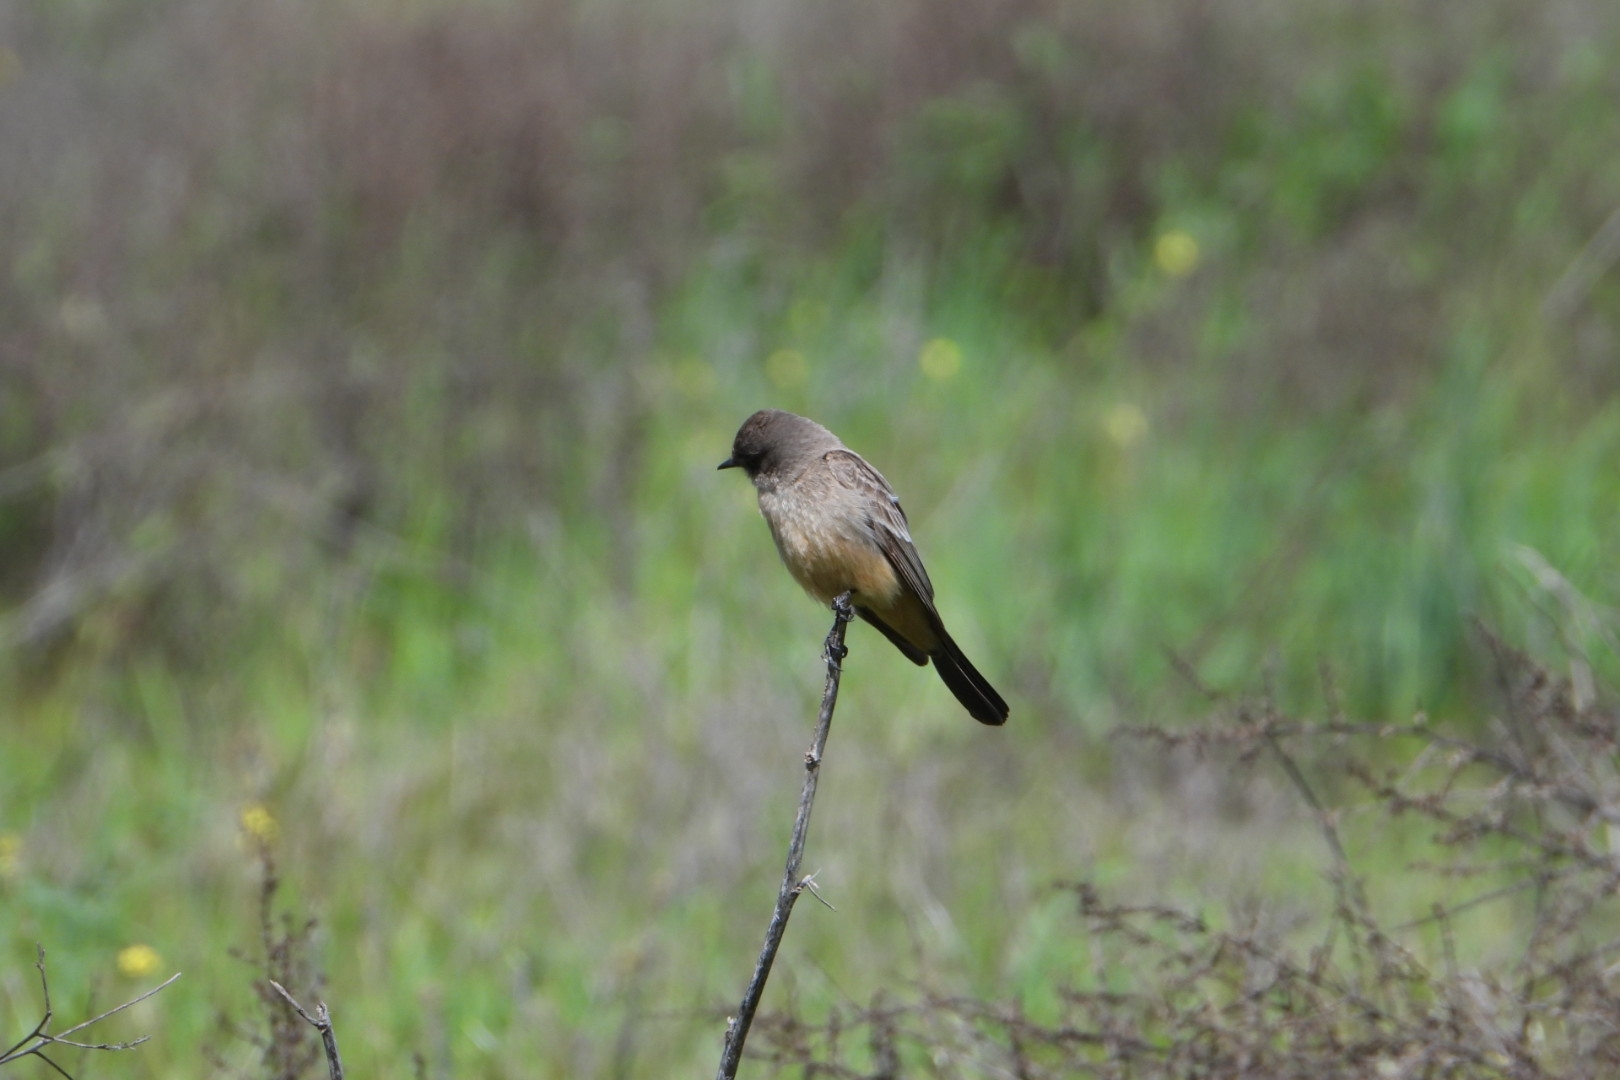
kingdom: Animalia
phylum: Chordata
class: Aves
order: Passeriformes
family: Tyrannidae
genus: Sayornis
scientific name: Sayornis saya
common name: Say's phoebe
